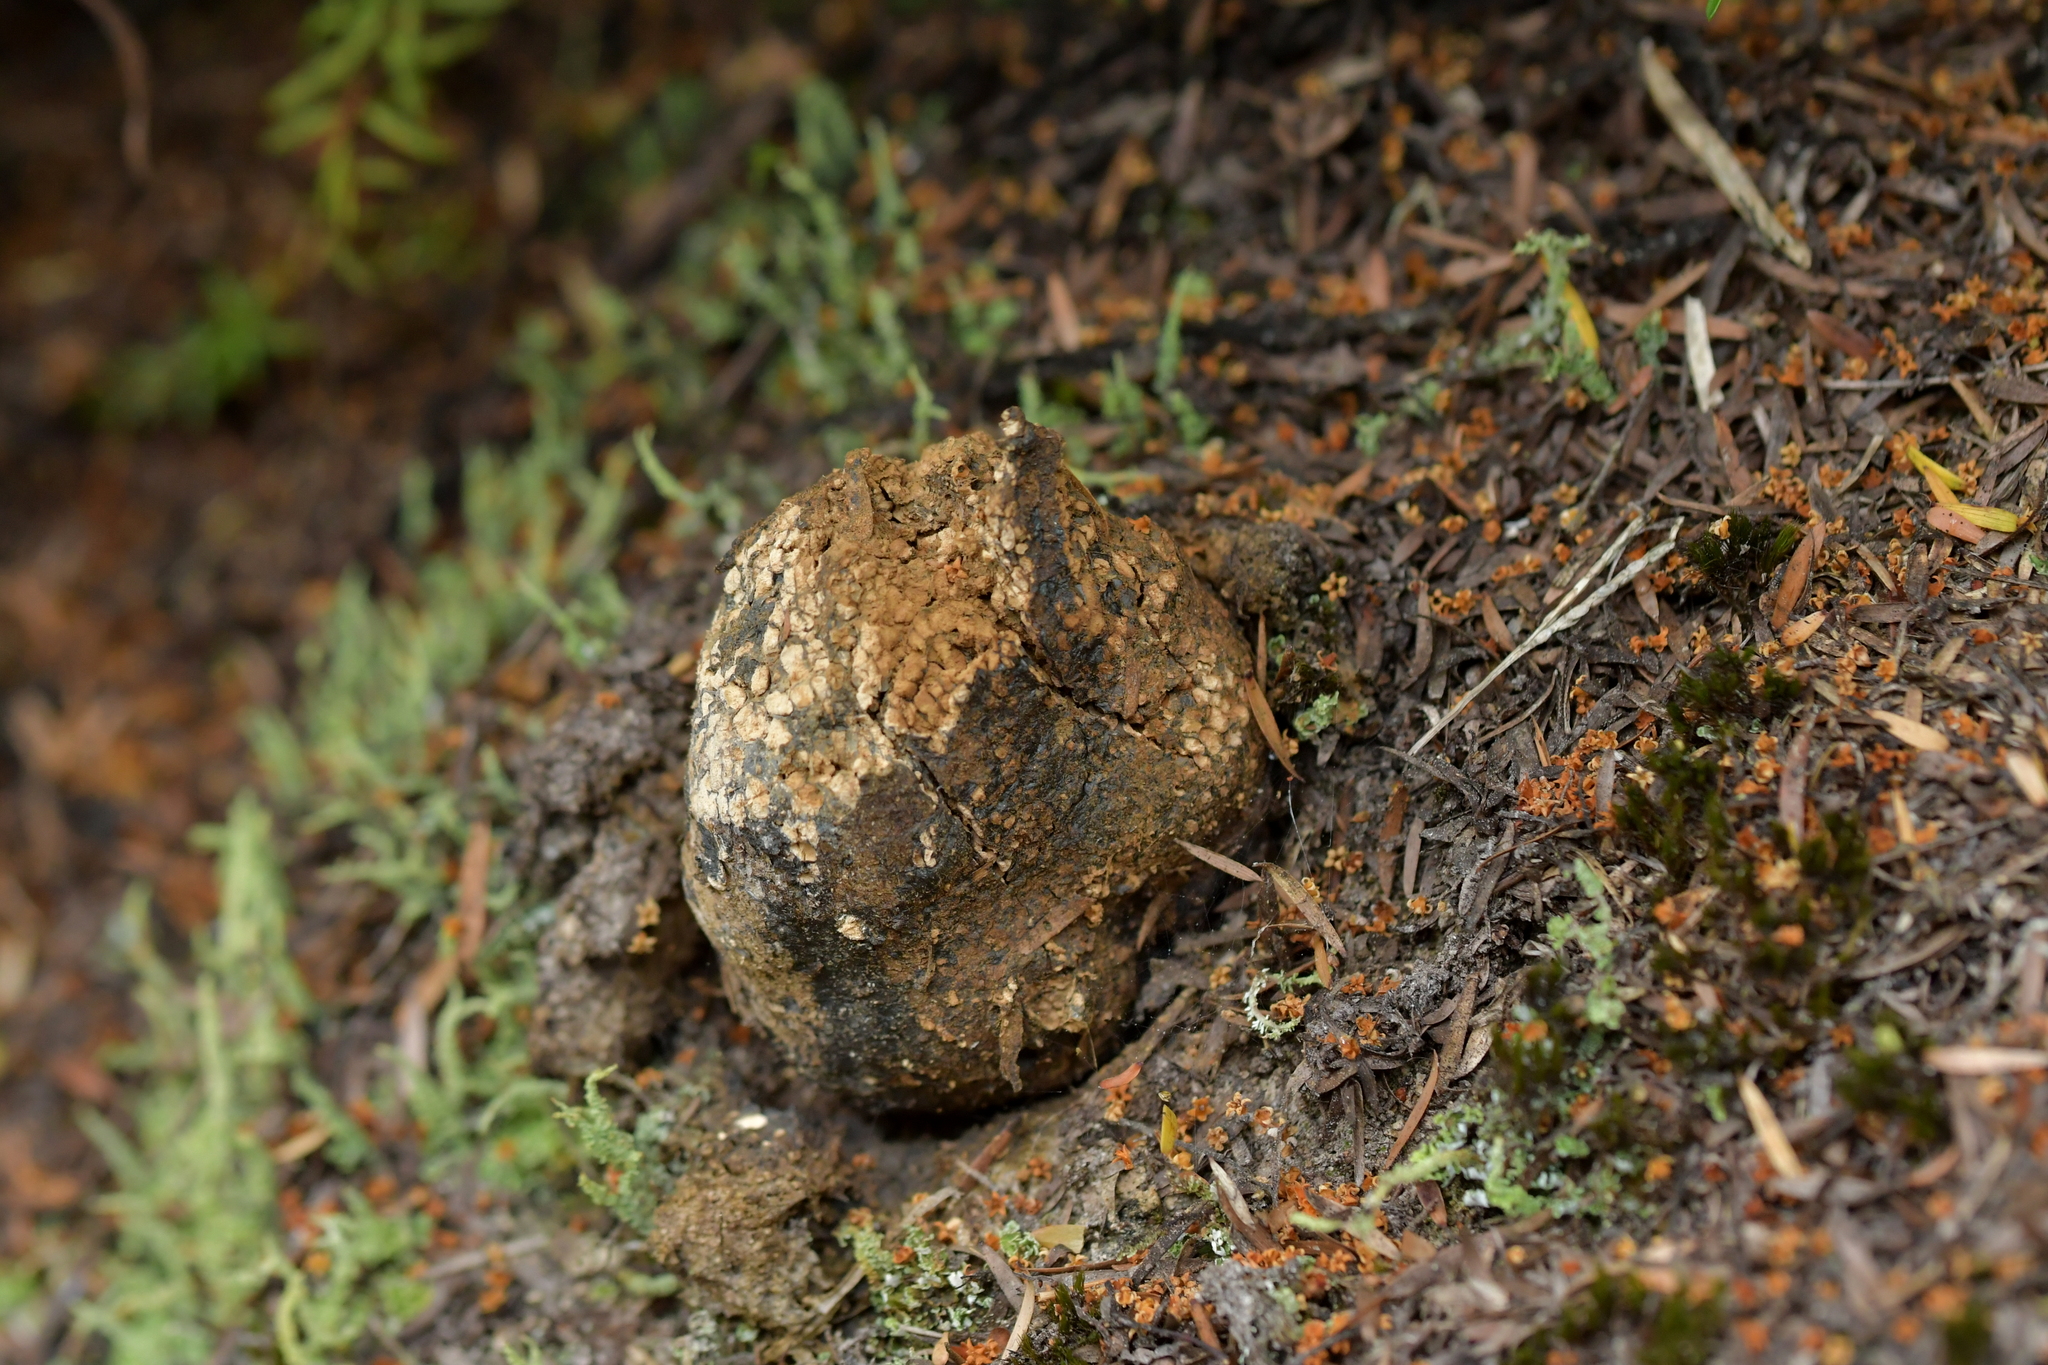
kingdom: Fungi
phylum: Basidiomycota
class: Agaricomycetes
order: Boletales
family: Sclerodermataceae
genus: Pisolithus
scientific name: Pisolithus thermaeus
